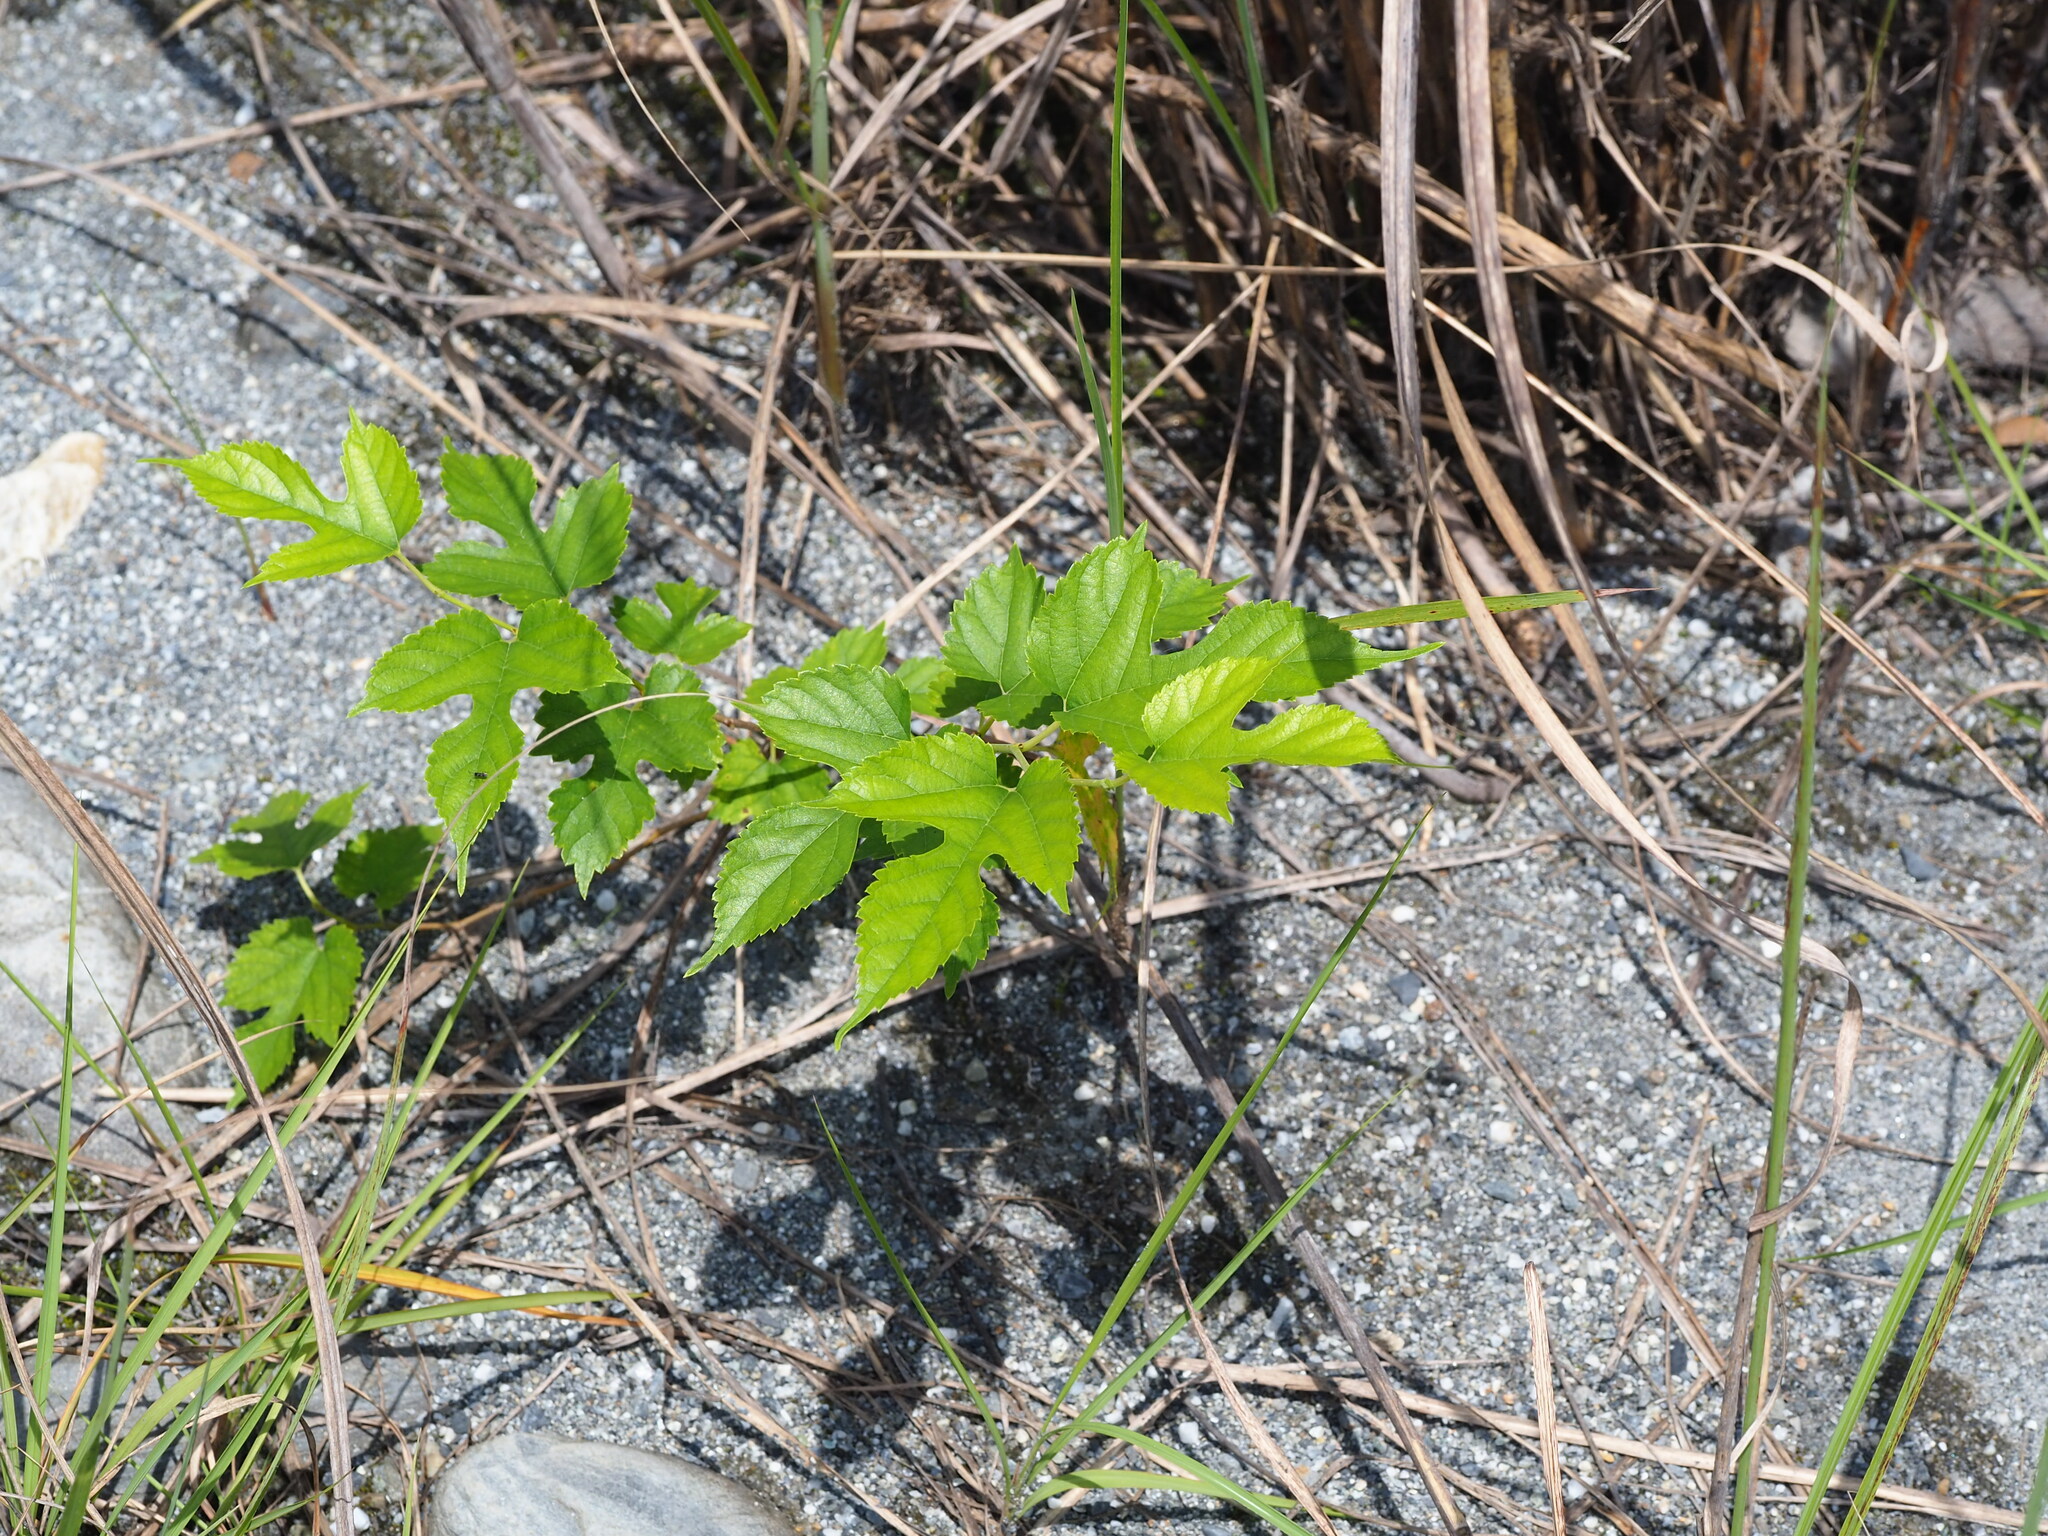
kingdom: Plantae
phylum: Tracheophyta
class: Magnoliopsida
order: Rosales
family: Moraceae
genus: Morus
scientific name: Morus indica
